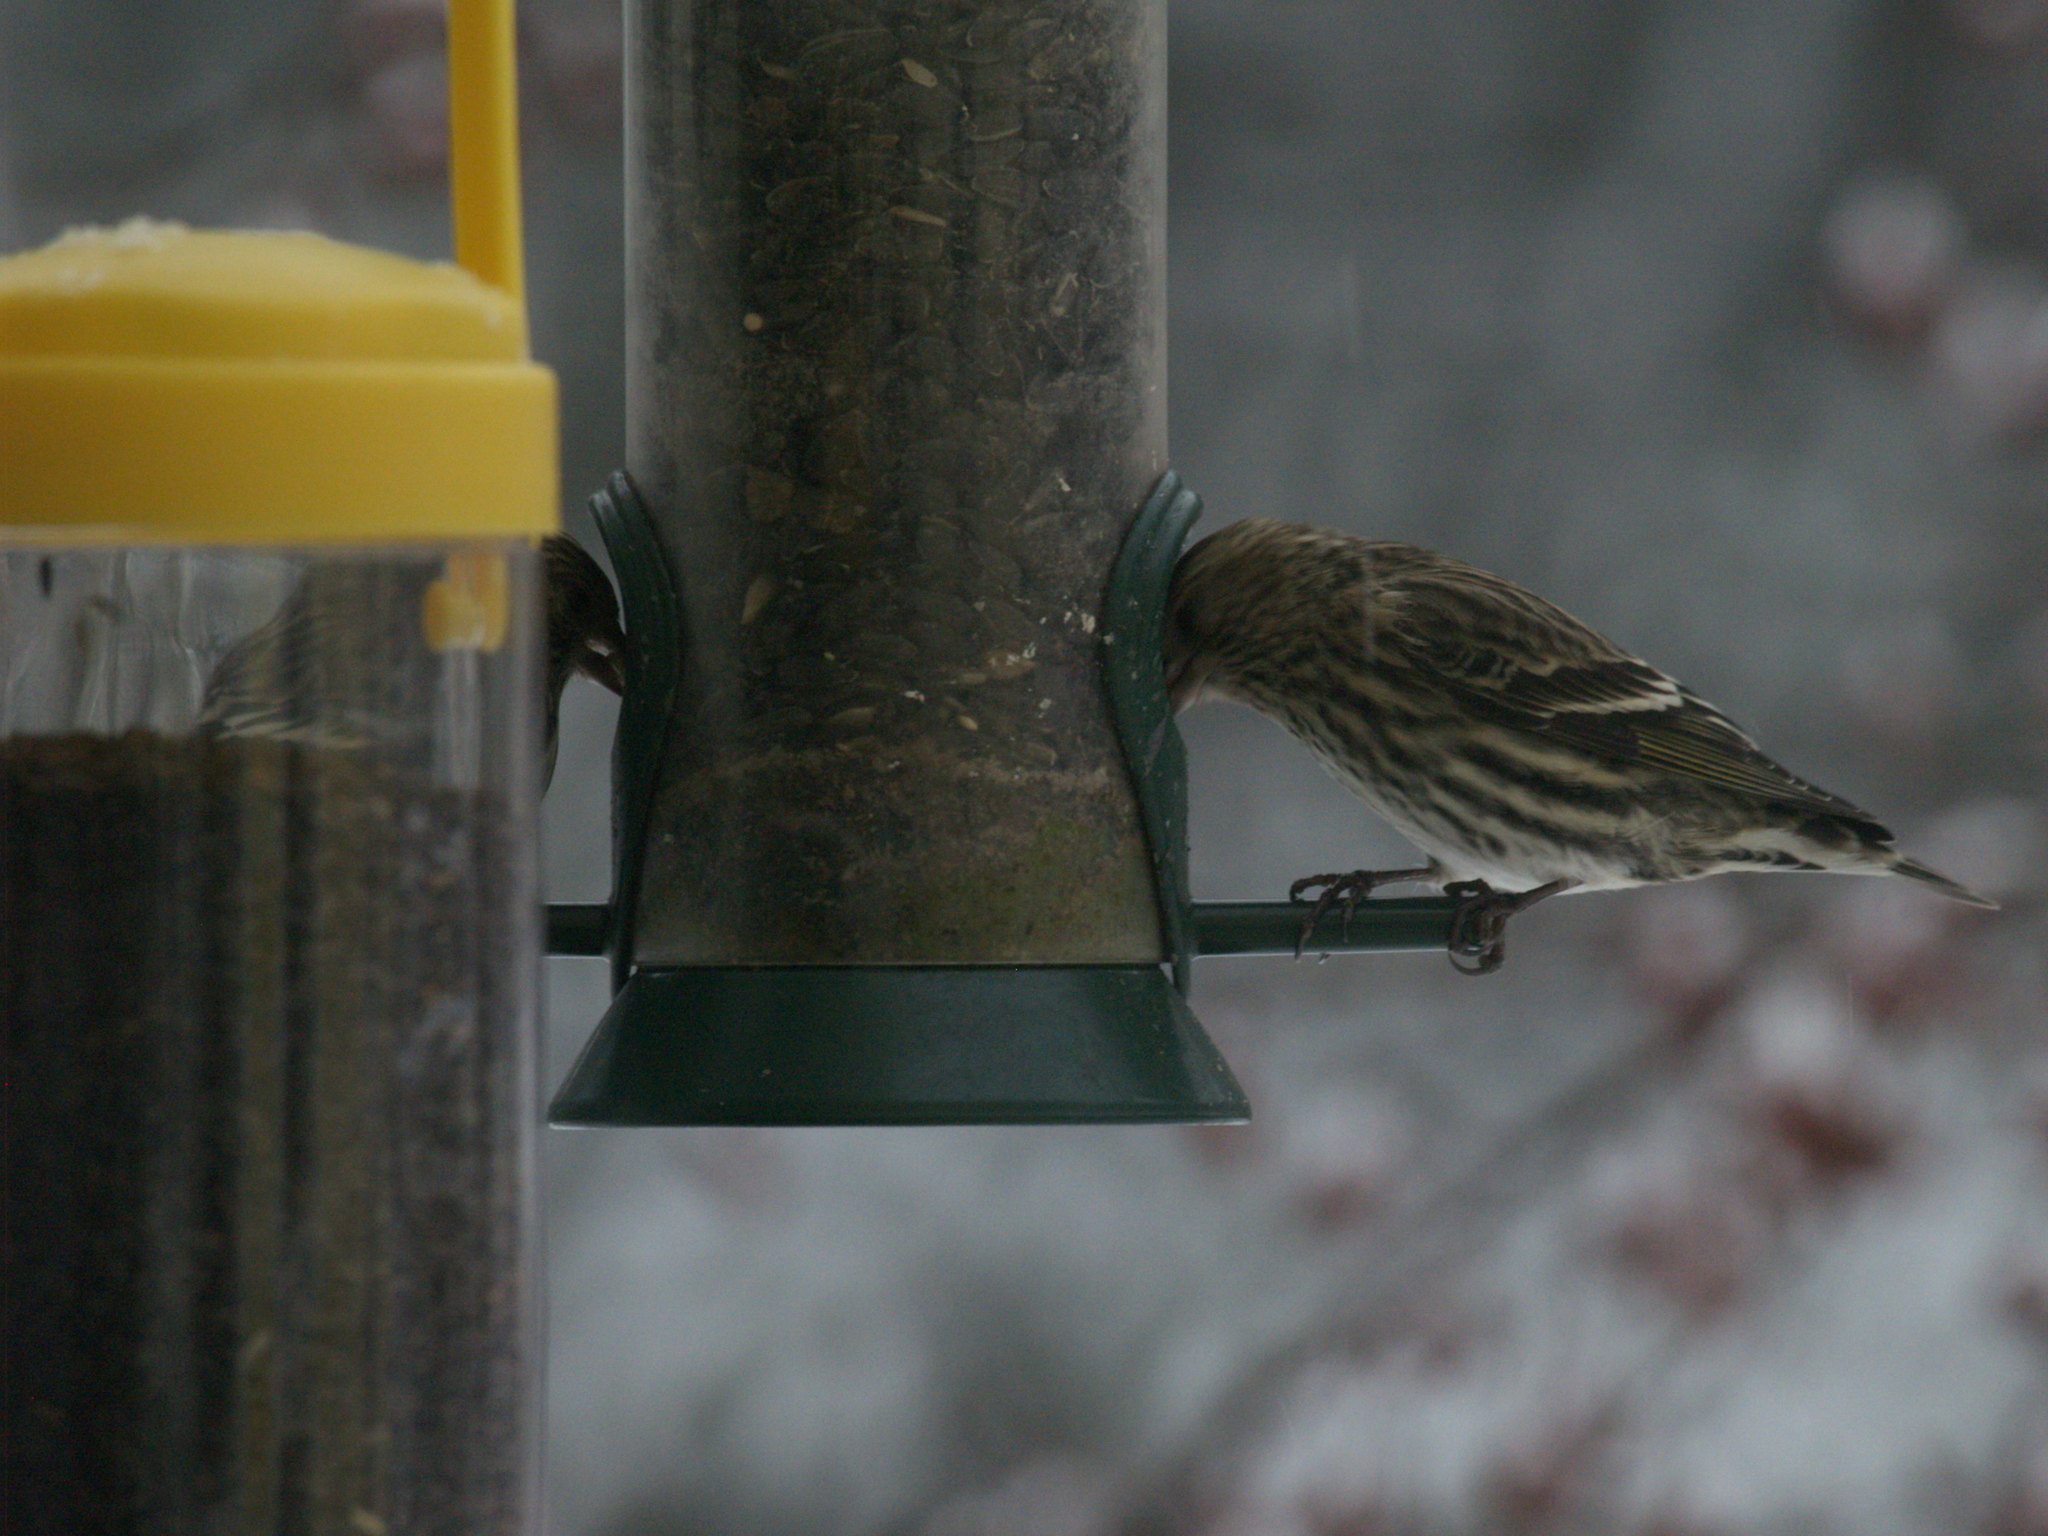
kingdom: Animalia
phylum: Chordata
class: Aves
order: Passeriformes
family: Fringillidae
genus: Spinus
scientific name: Spinus pinus
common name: Pine siskin
